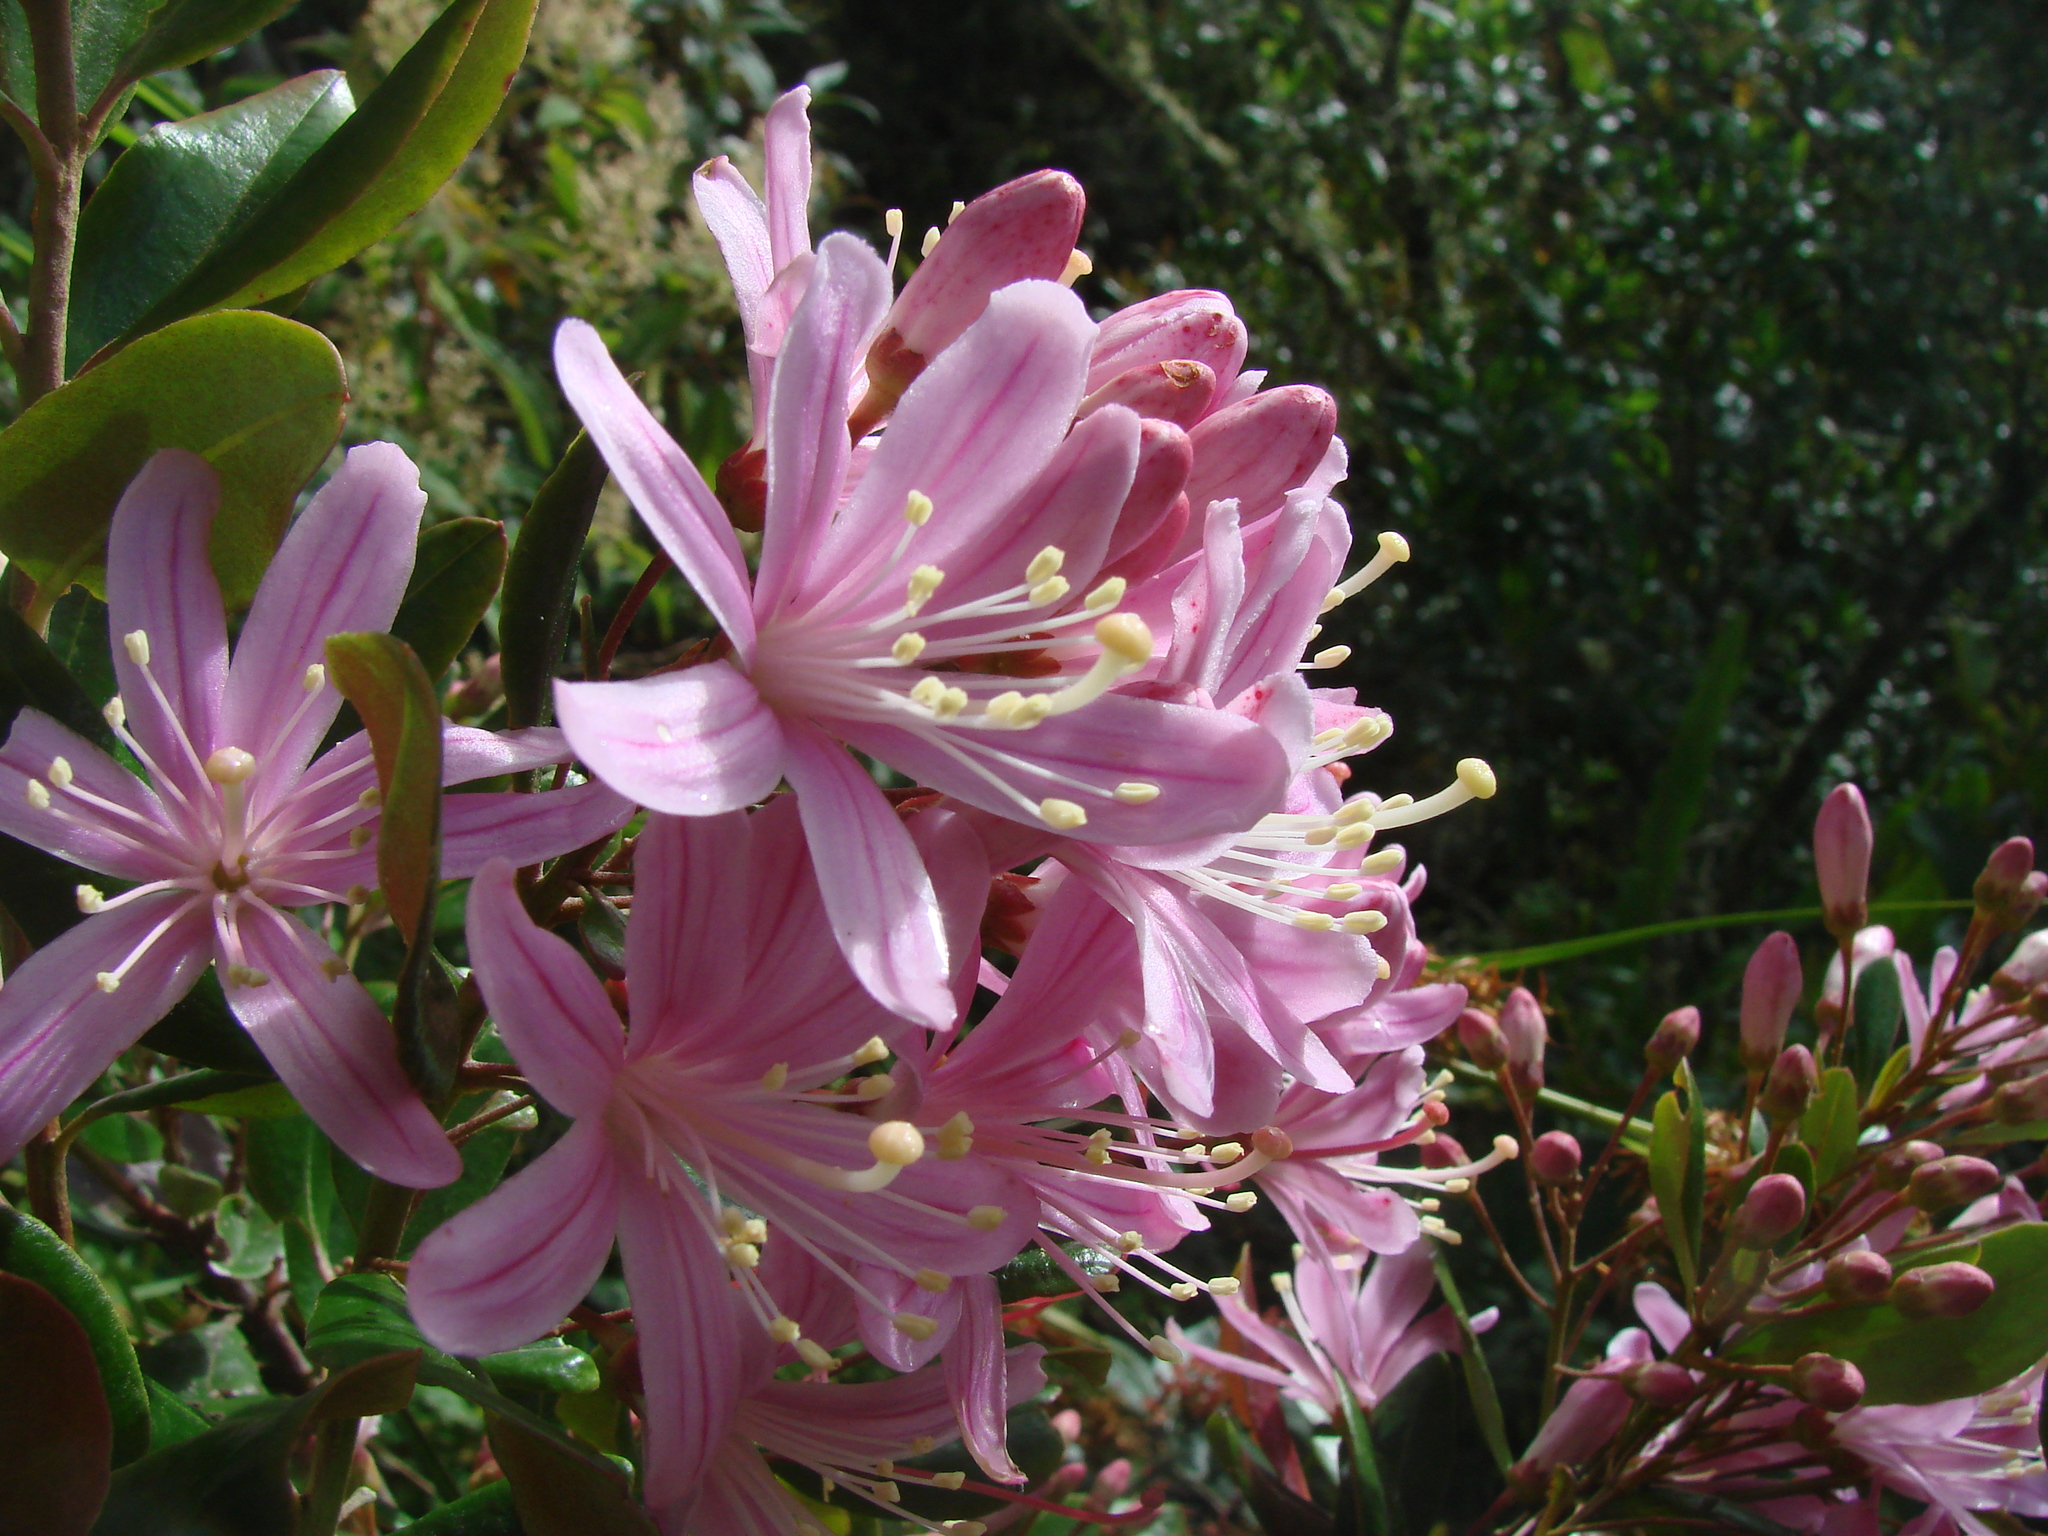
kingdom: Plantae
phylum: Tracheophyta
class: Magnoliopsida
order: Ericales
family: Ericaceae
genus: Bejaria
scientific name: Bejaria aestuans
